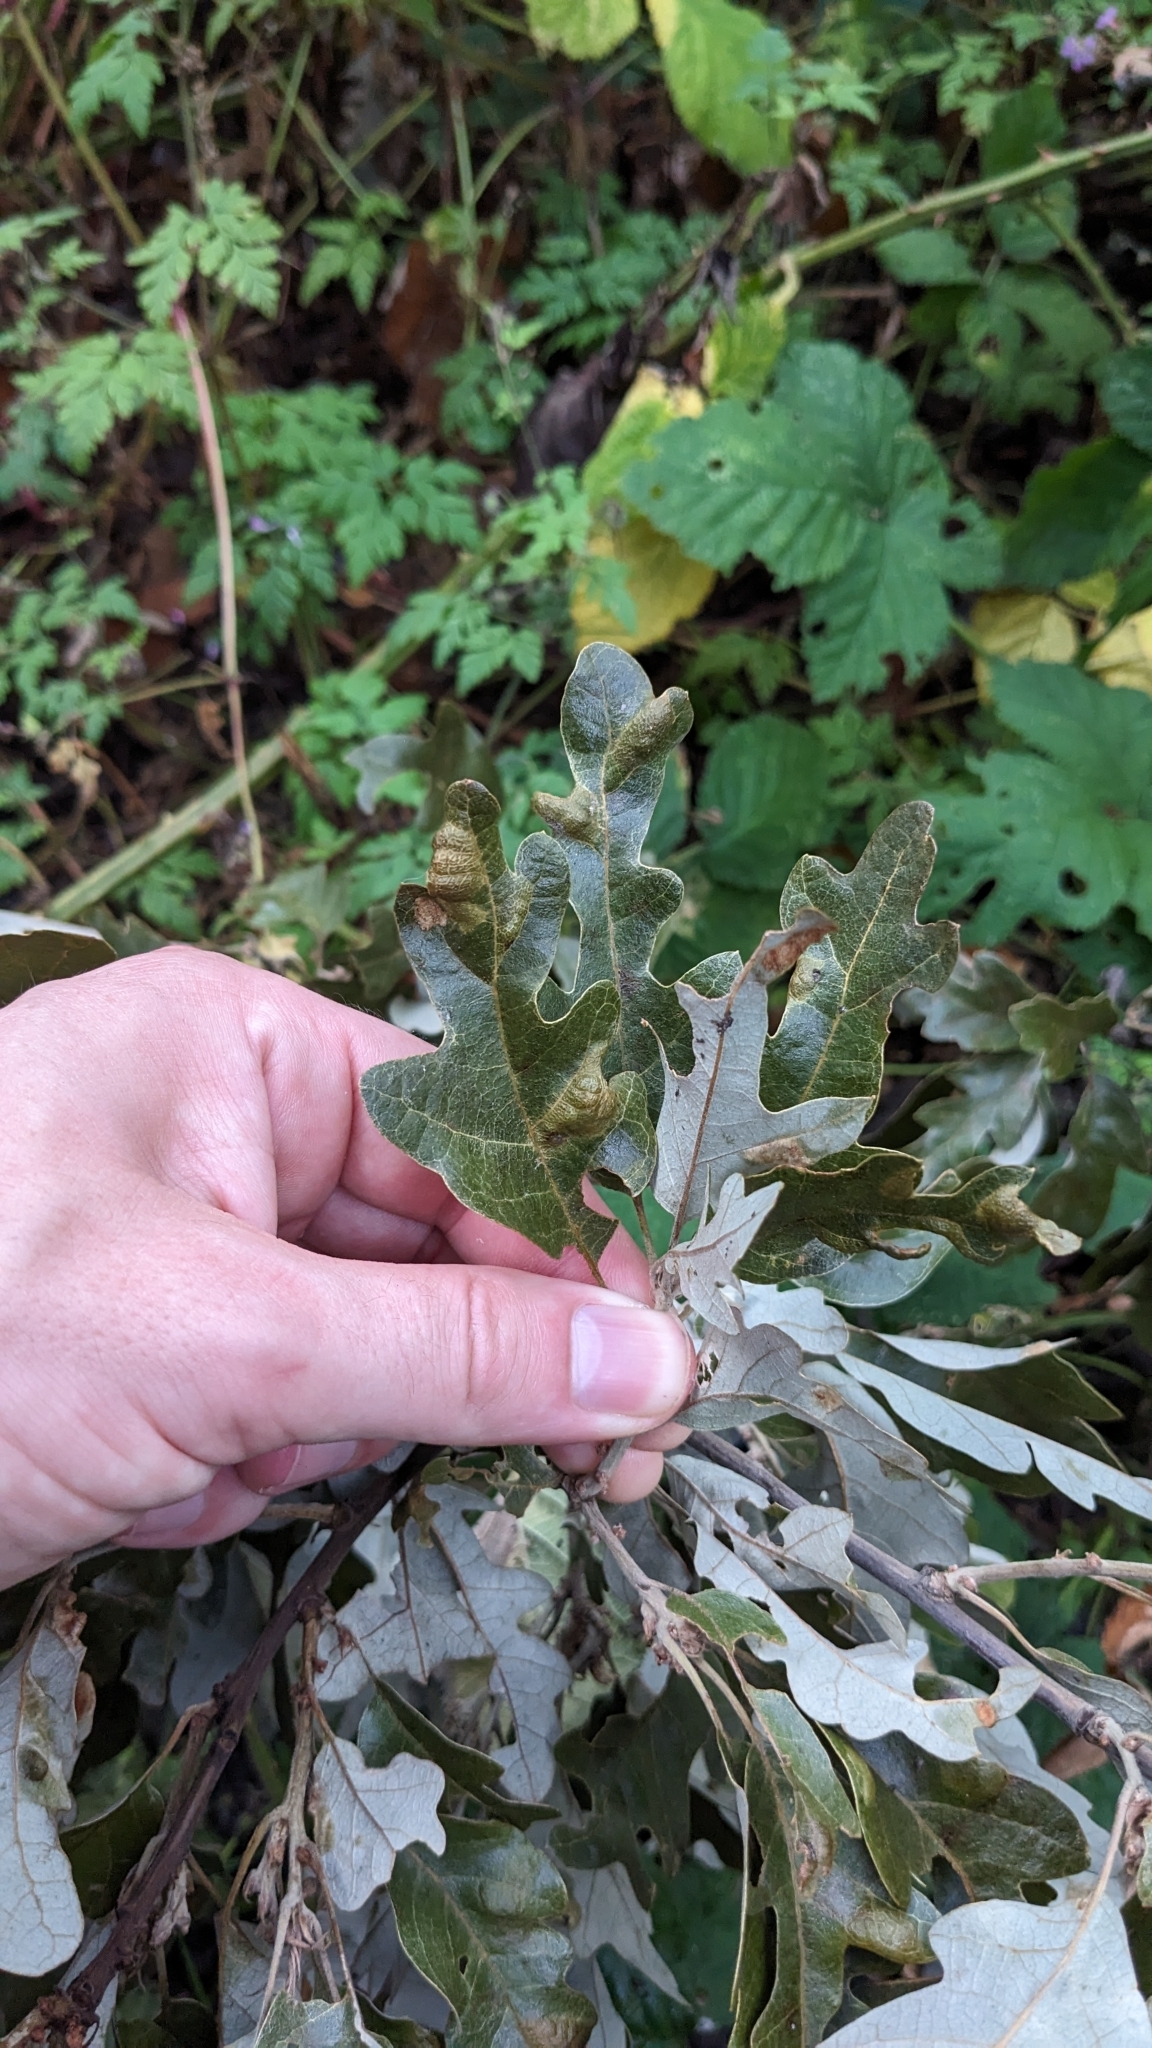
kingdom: Animalia
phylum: Arthropoda
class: Arachnida
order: Trombidiformes
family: Eriophyidae
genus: Aceria
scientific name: Aceria cerrea
